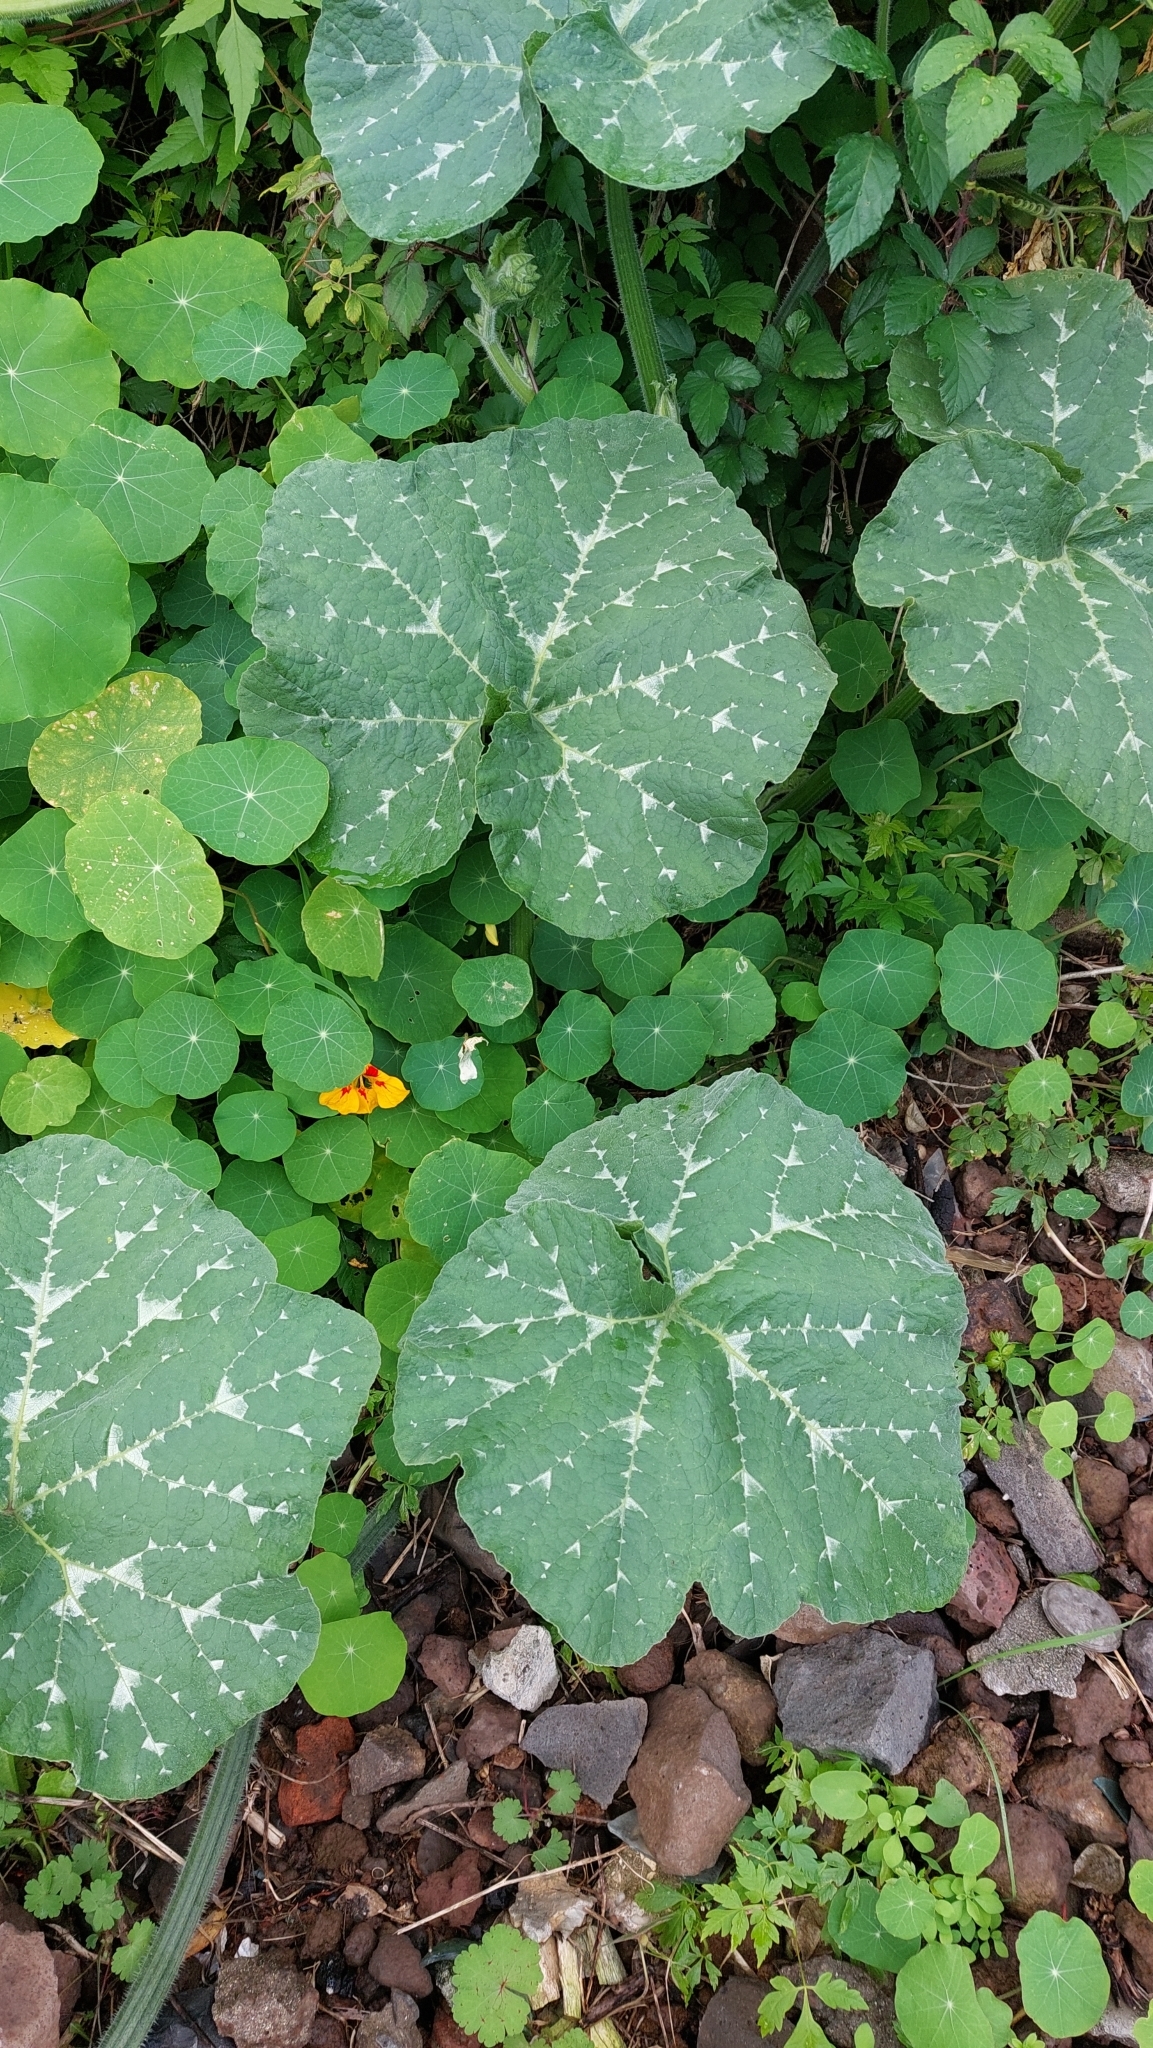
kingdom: Plantae
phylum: Tracheophyta
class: Magnoliopsida
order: Brassicales
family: Tropaeolaceae
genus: Tropaeolum
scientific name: Tropaeolum majus
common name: Nasturtium
